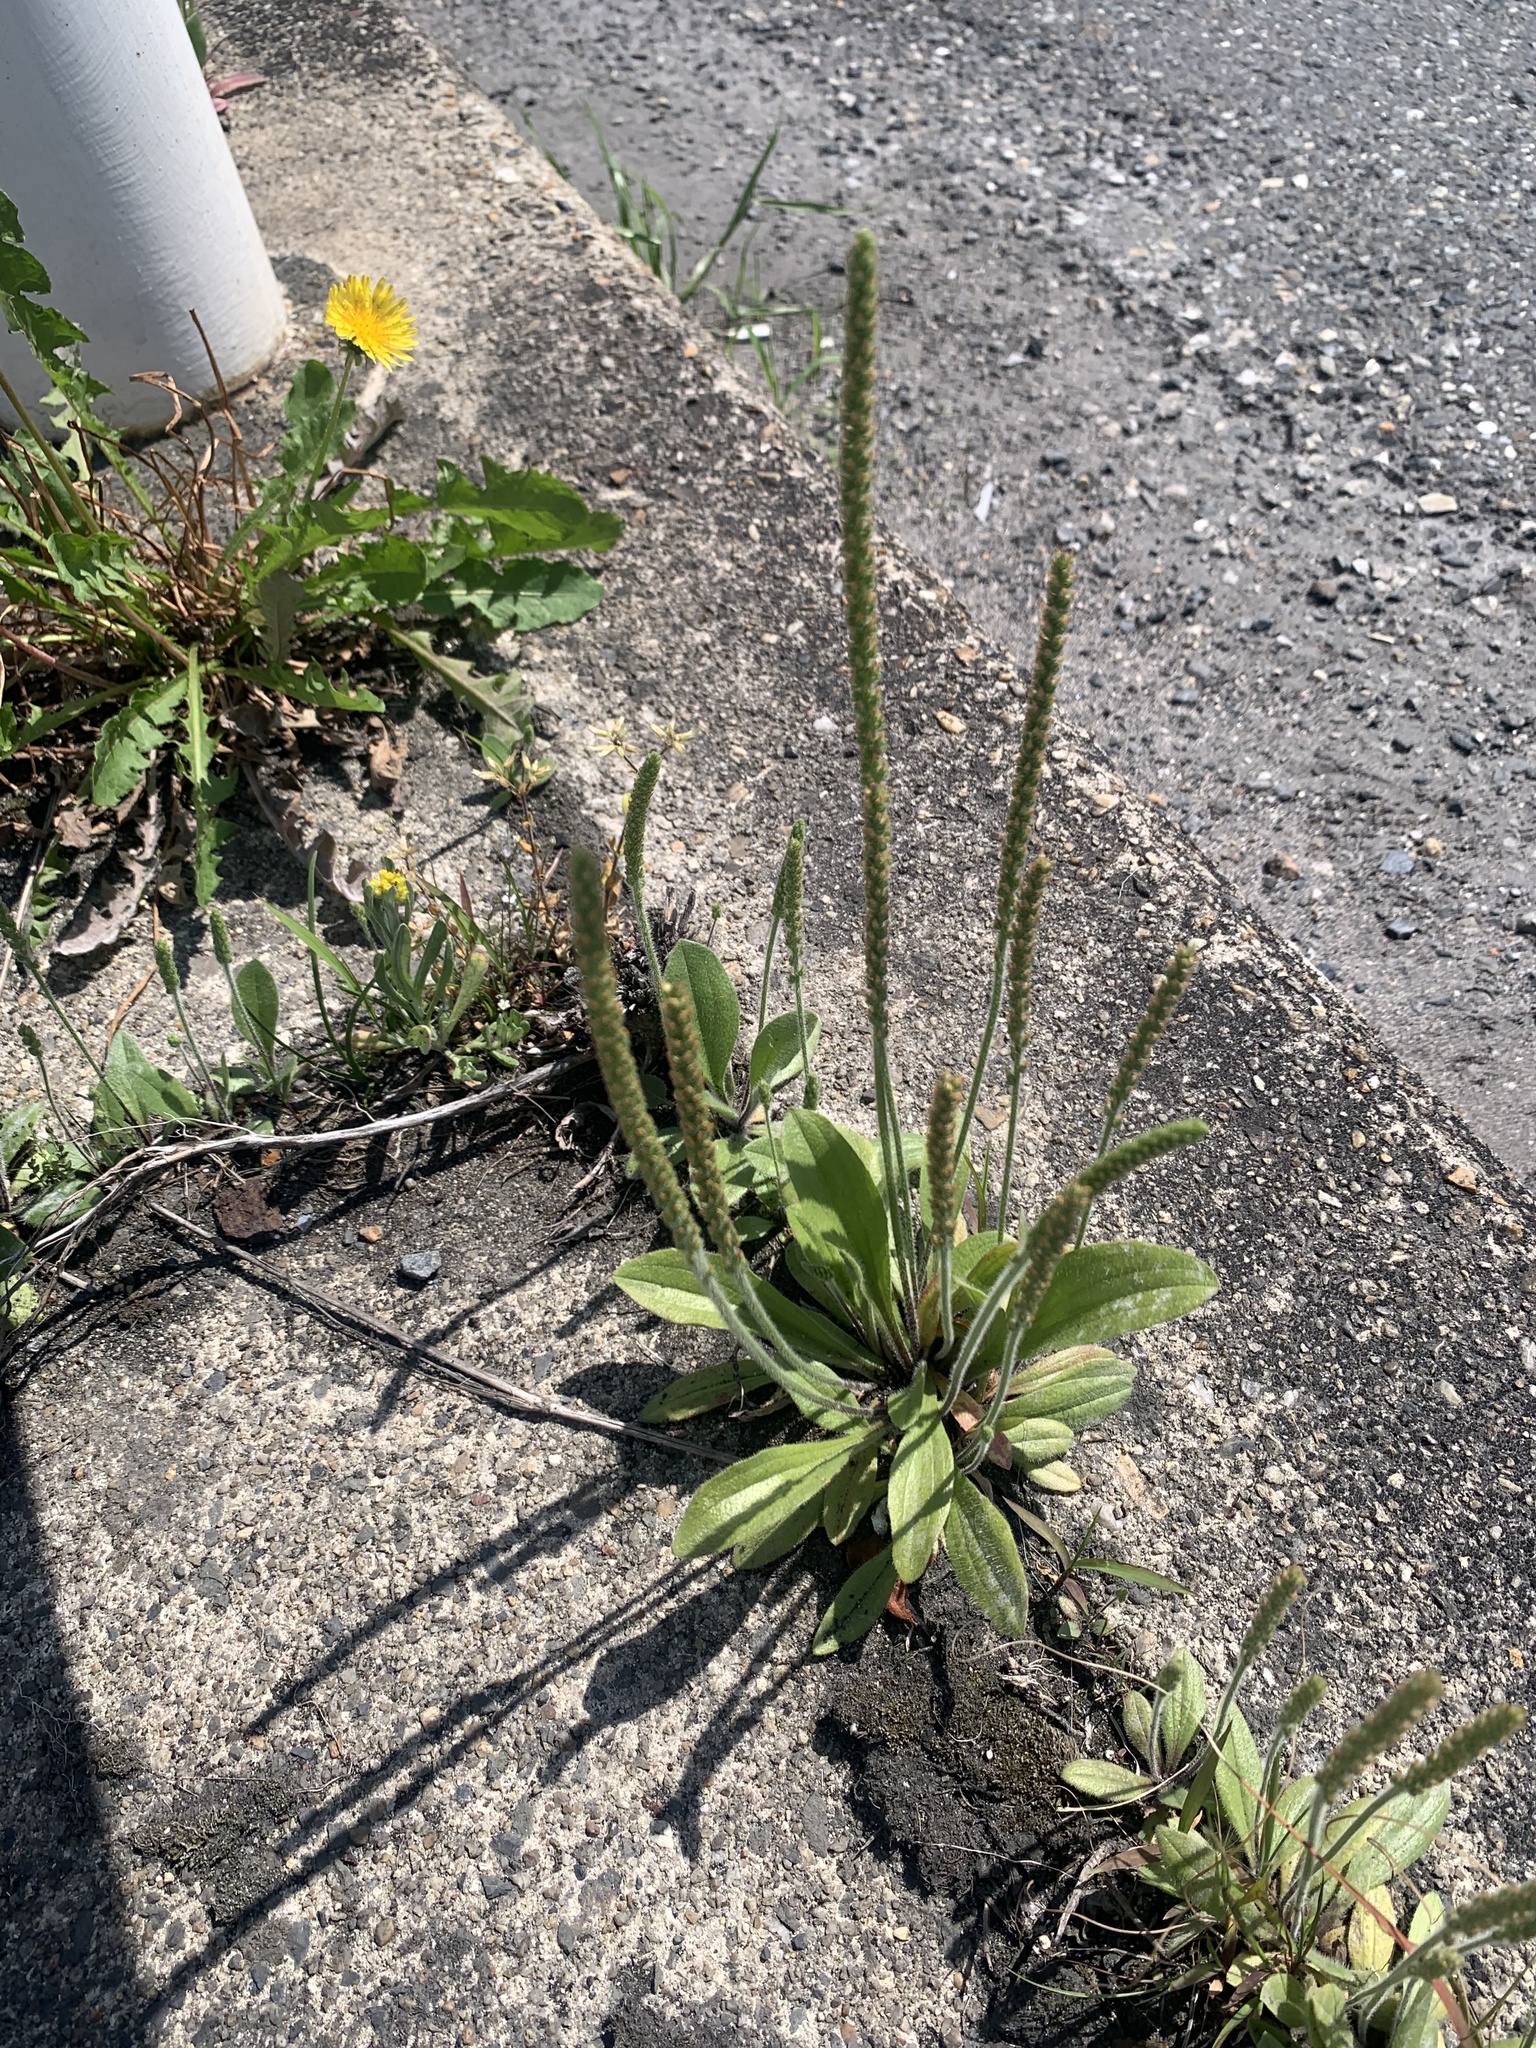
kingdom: Plantae
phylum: Tracheophyta
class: Magnoliopsida
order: Lamiales
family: Plantaginaceae
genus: Plantago
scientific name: Plantago virginica
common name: Hoary plantain
